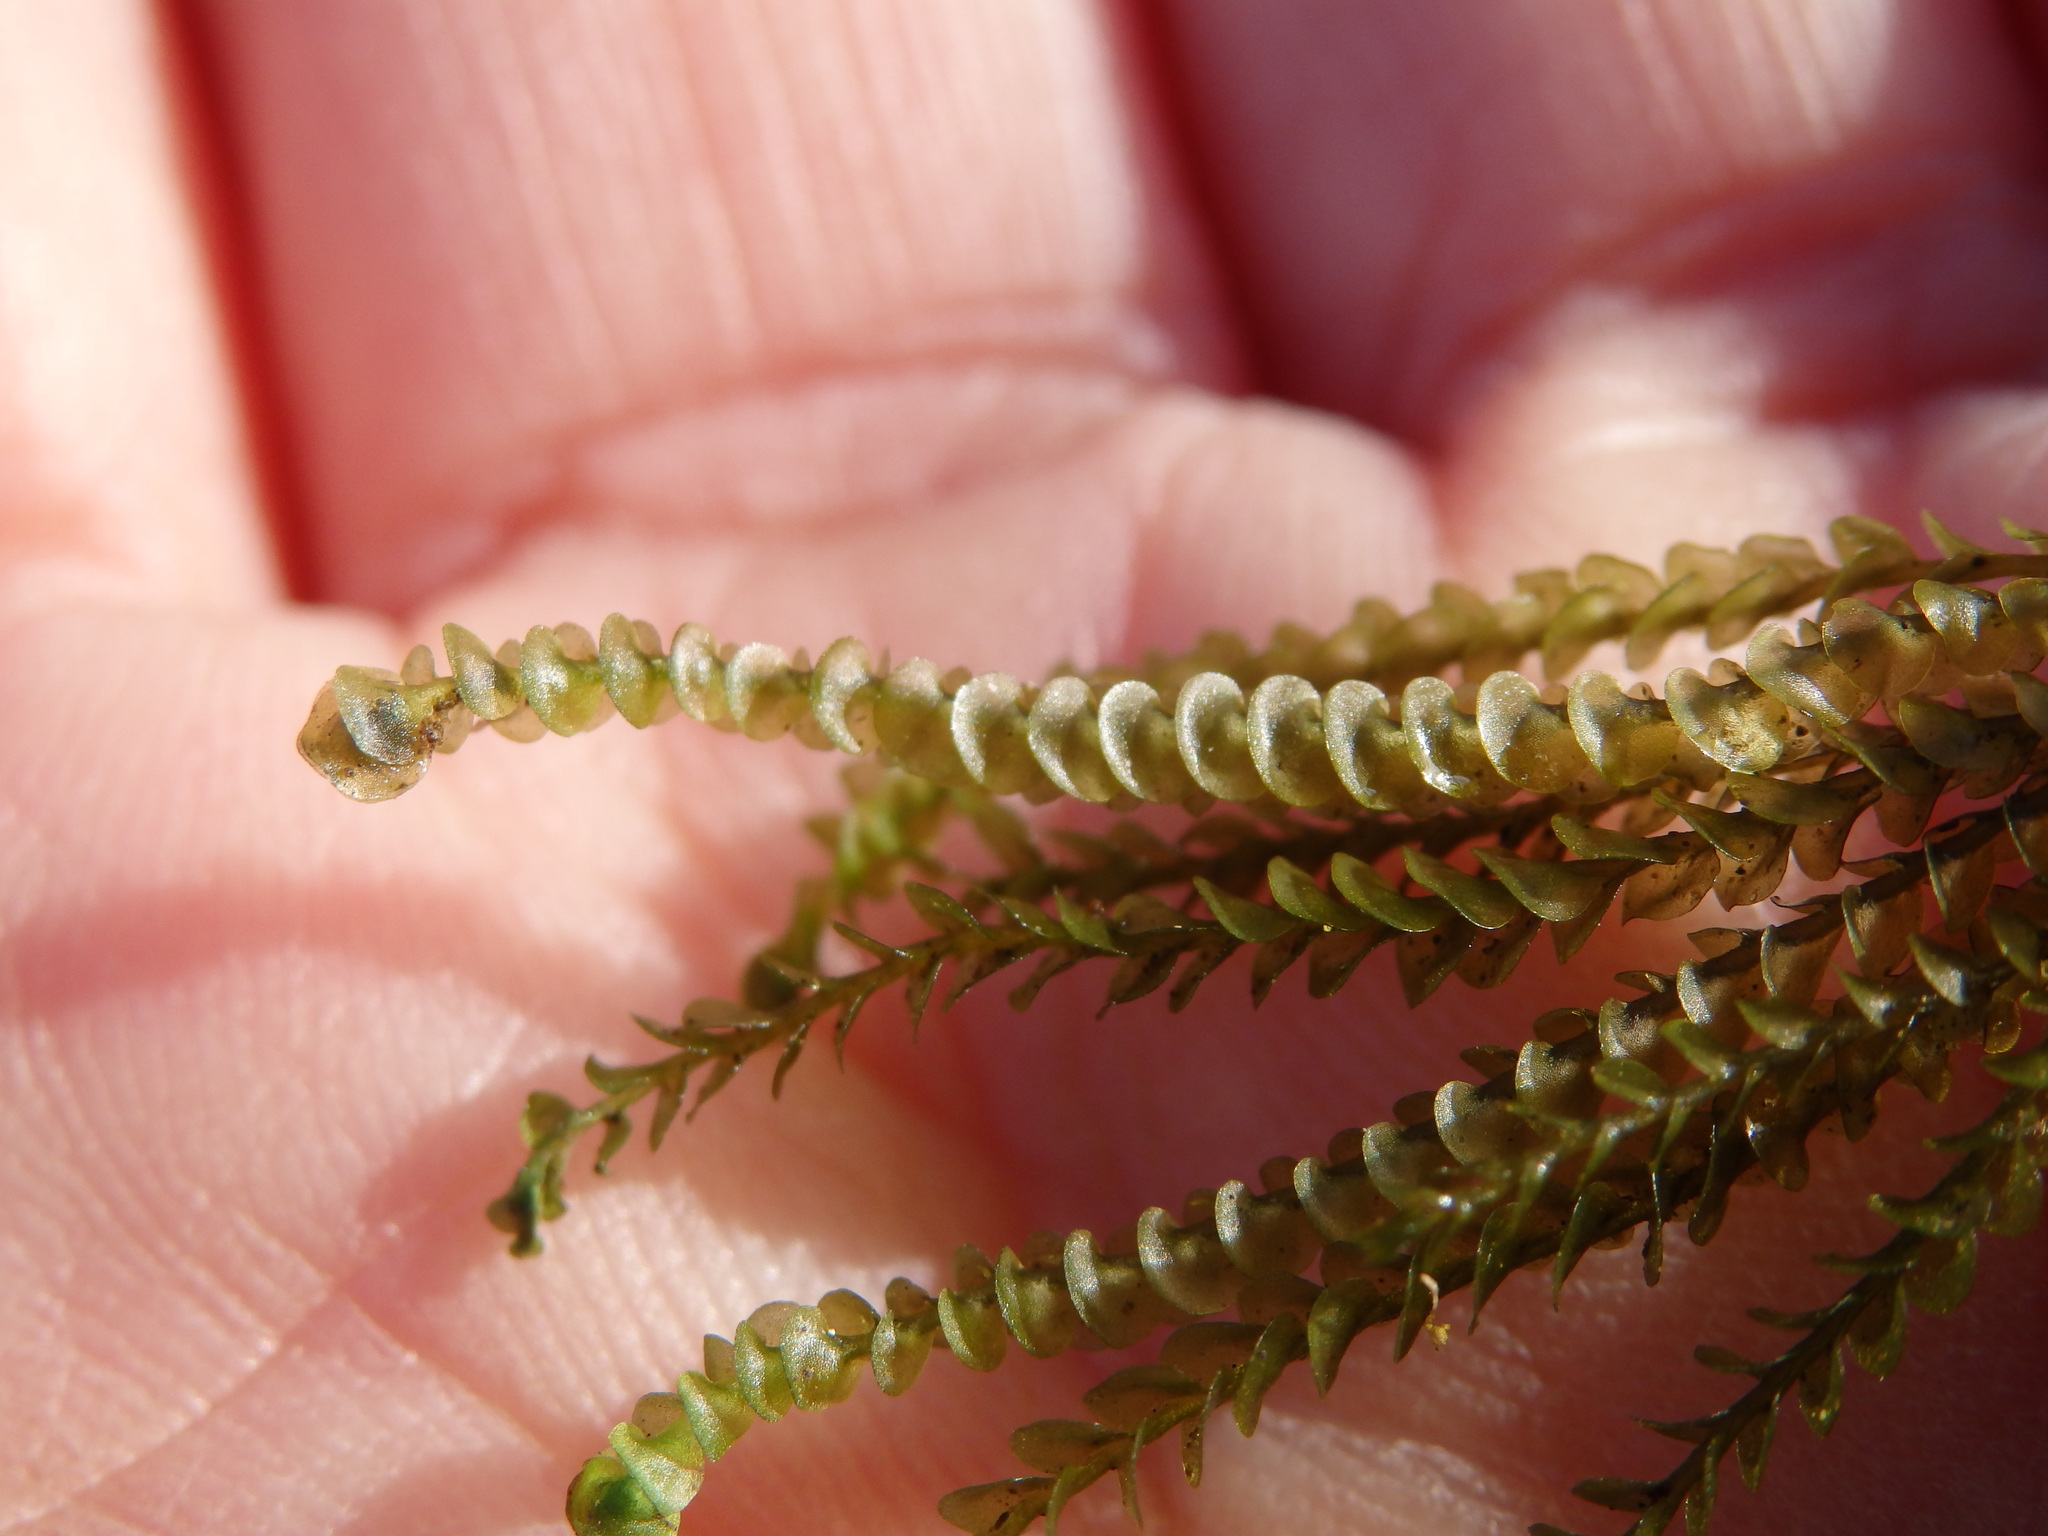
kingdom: Plantae
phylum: Marchantiophyta
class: Jungermanniopsida
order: Jungermanniales
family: Gymnomitriaceae
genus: Marsupella
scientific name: Marsupella emarginata
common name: Notched rustwort
